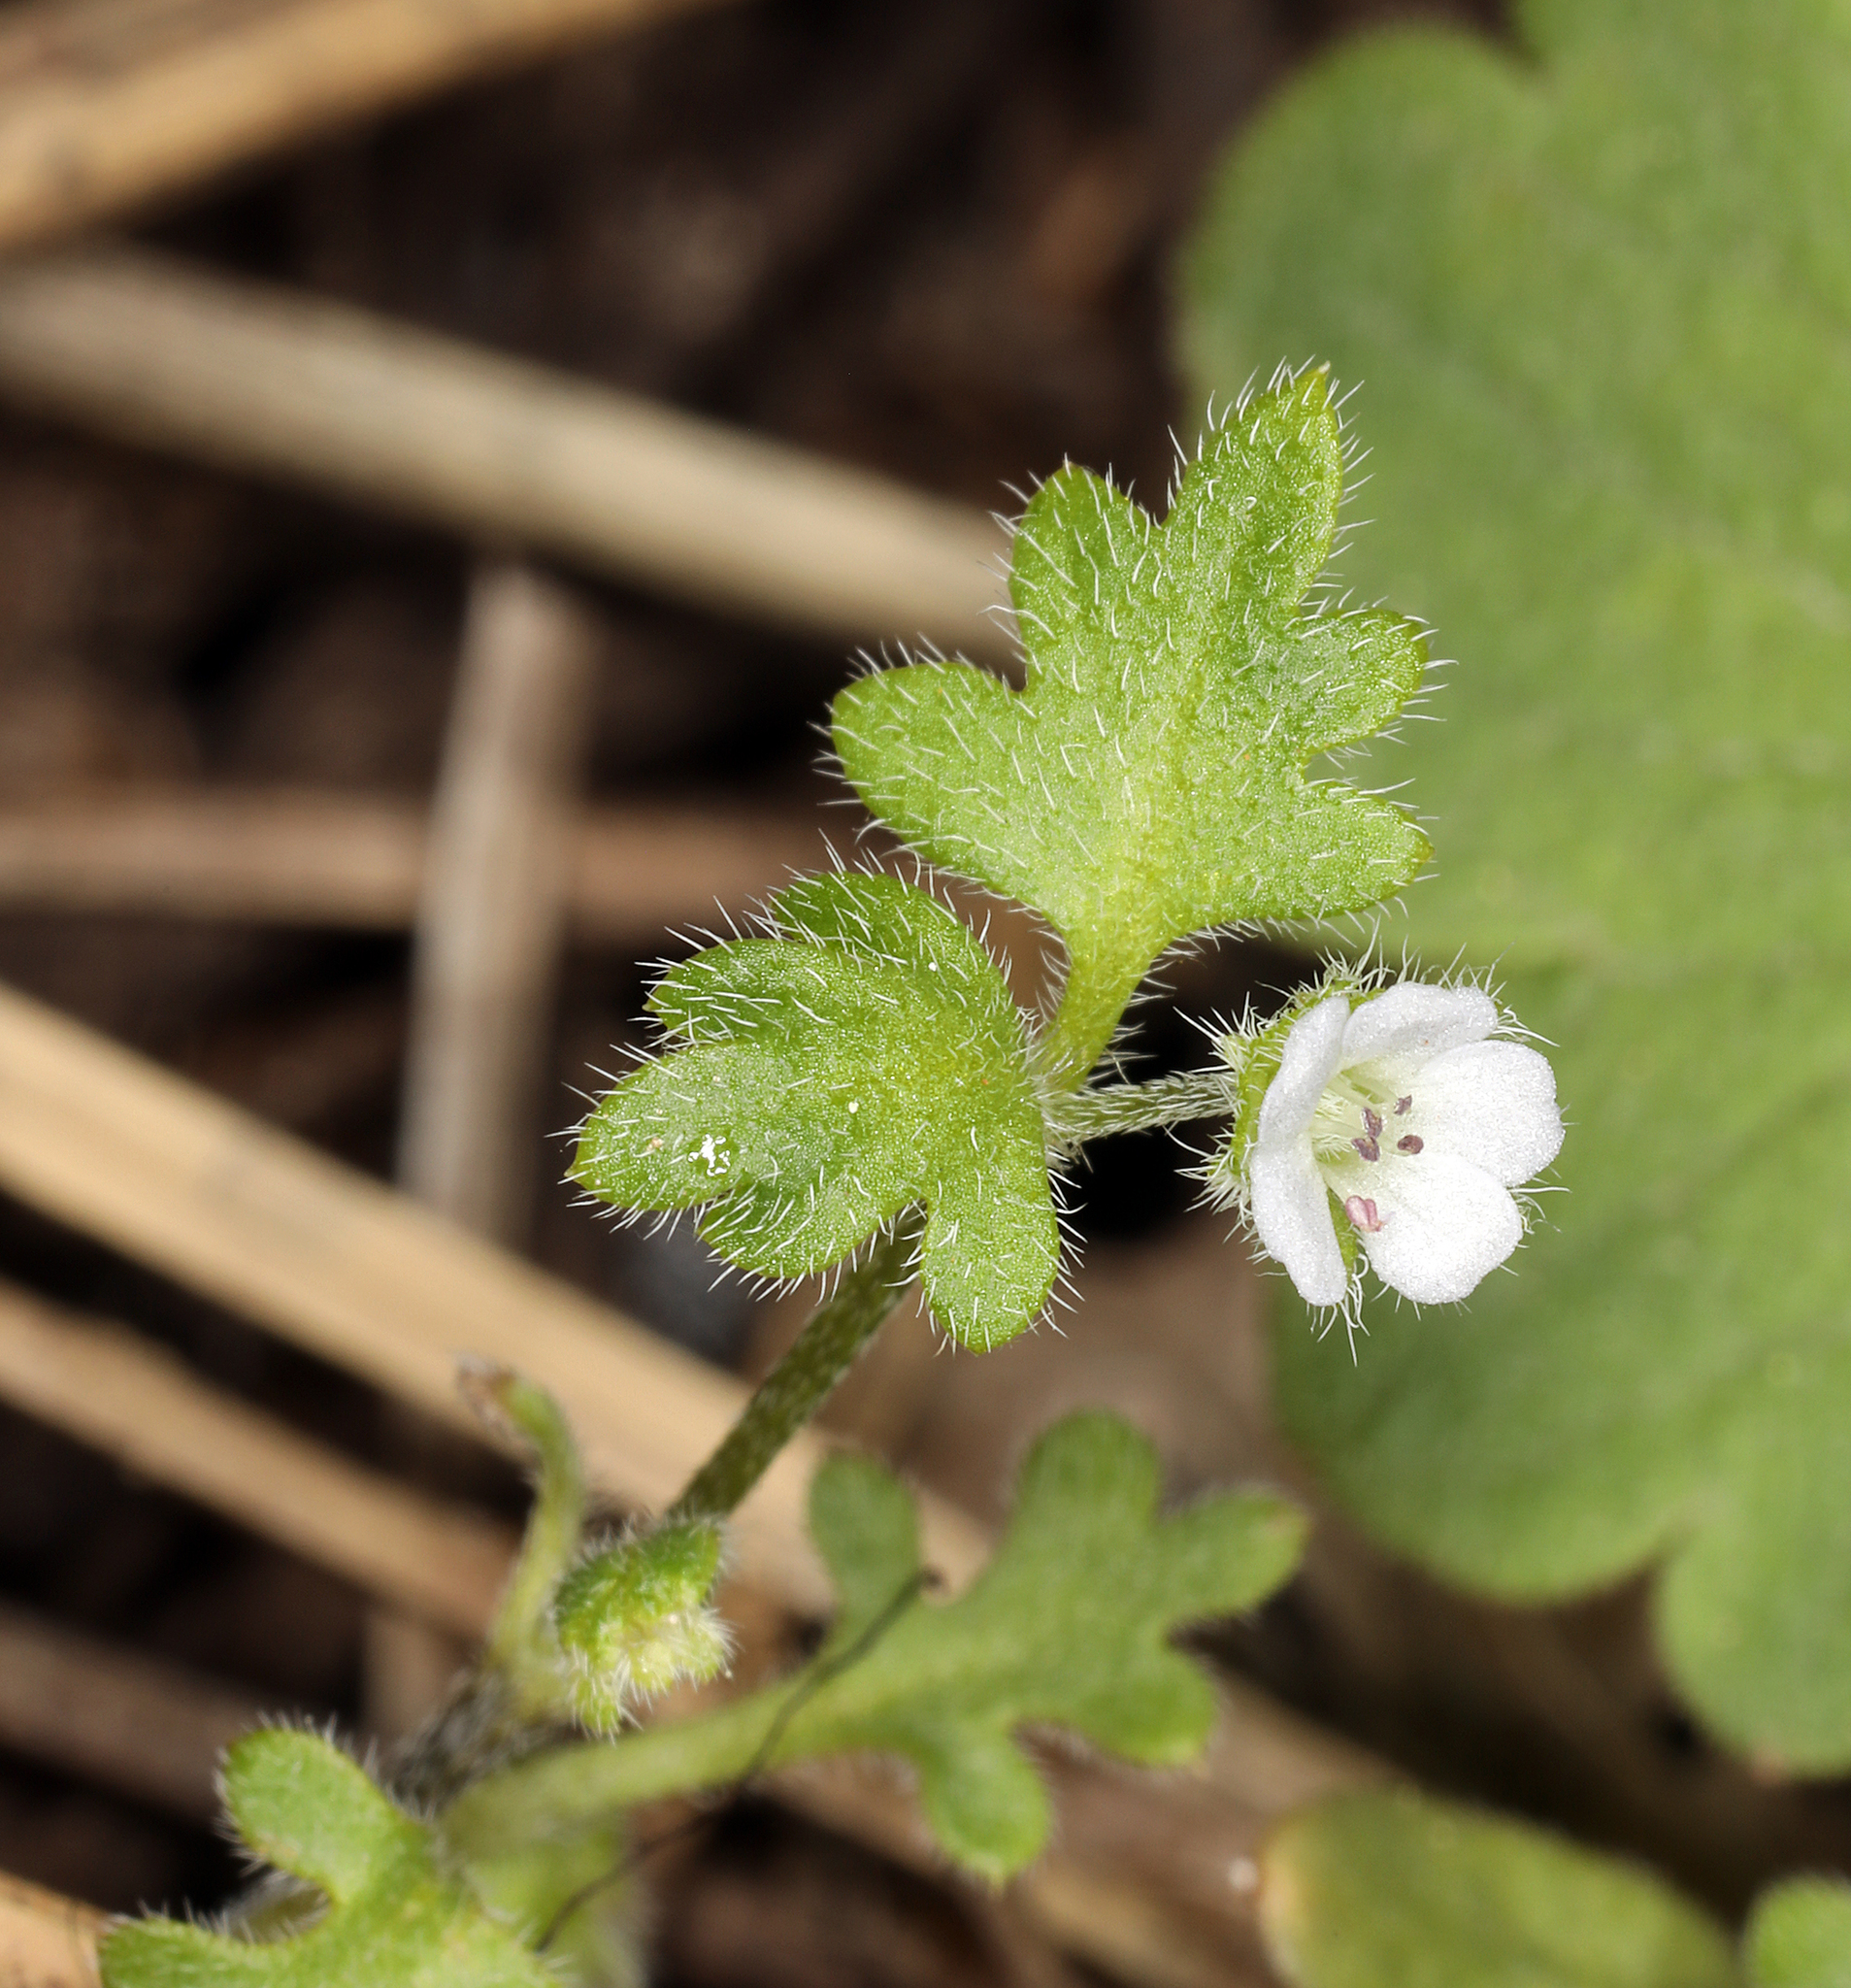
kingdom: Plantae
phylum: Tracheophyta
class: Magnoliopsida
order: Boraginales
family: Hydrophyllaceae
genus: Nemophila
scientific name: Nemophila heterophylla
